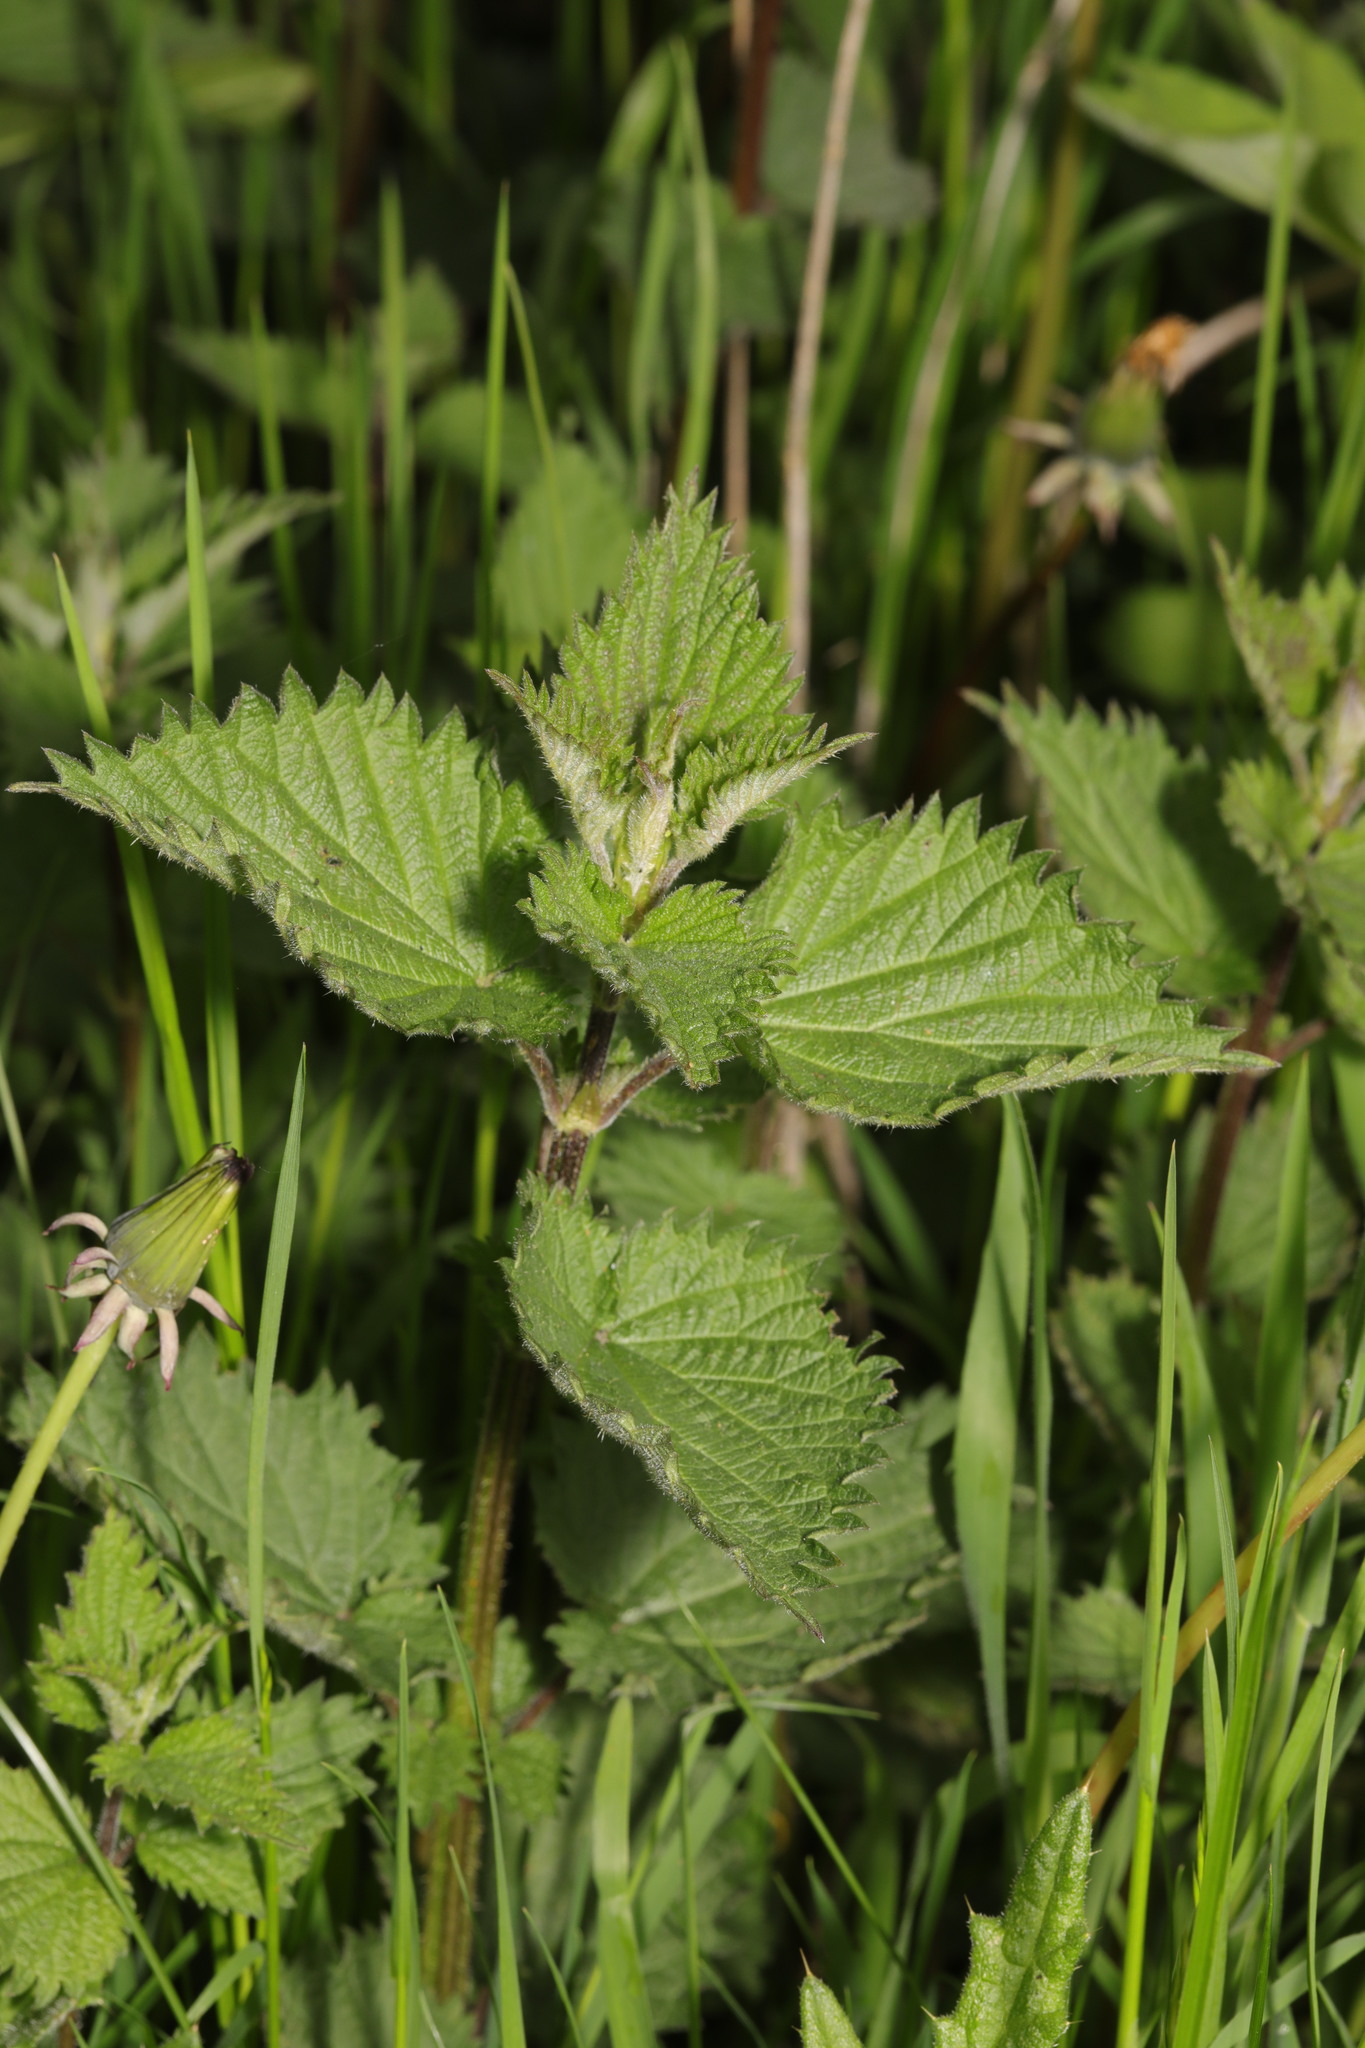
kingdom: Plantae
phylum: Tracheophyta
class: Magnoliopsida
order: Rosales
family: Urticaceae
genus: Urtica
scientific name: Urtica dioica
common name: Common nettle
